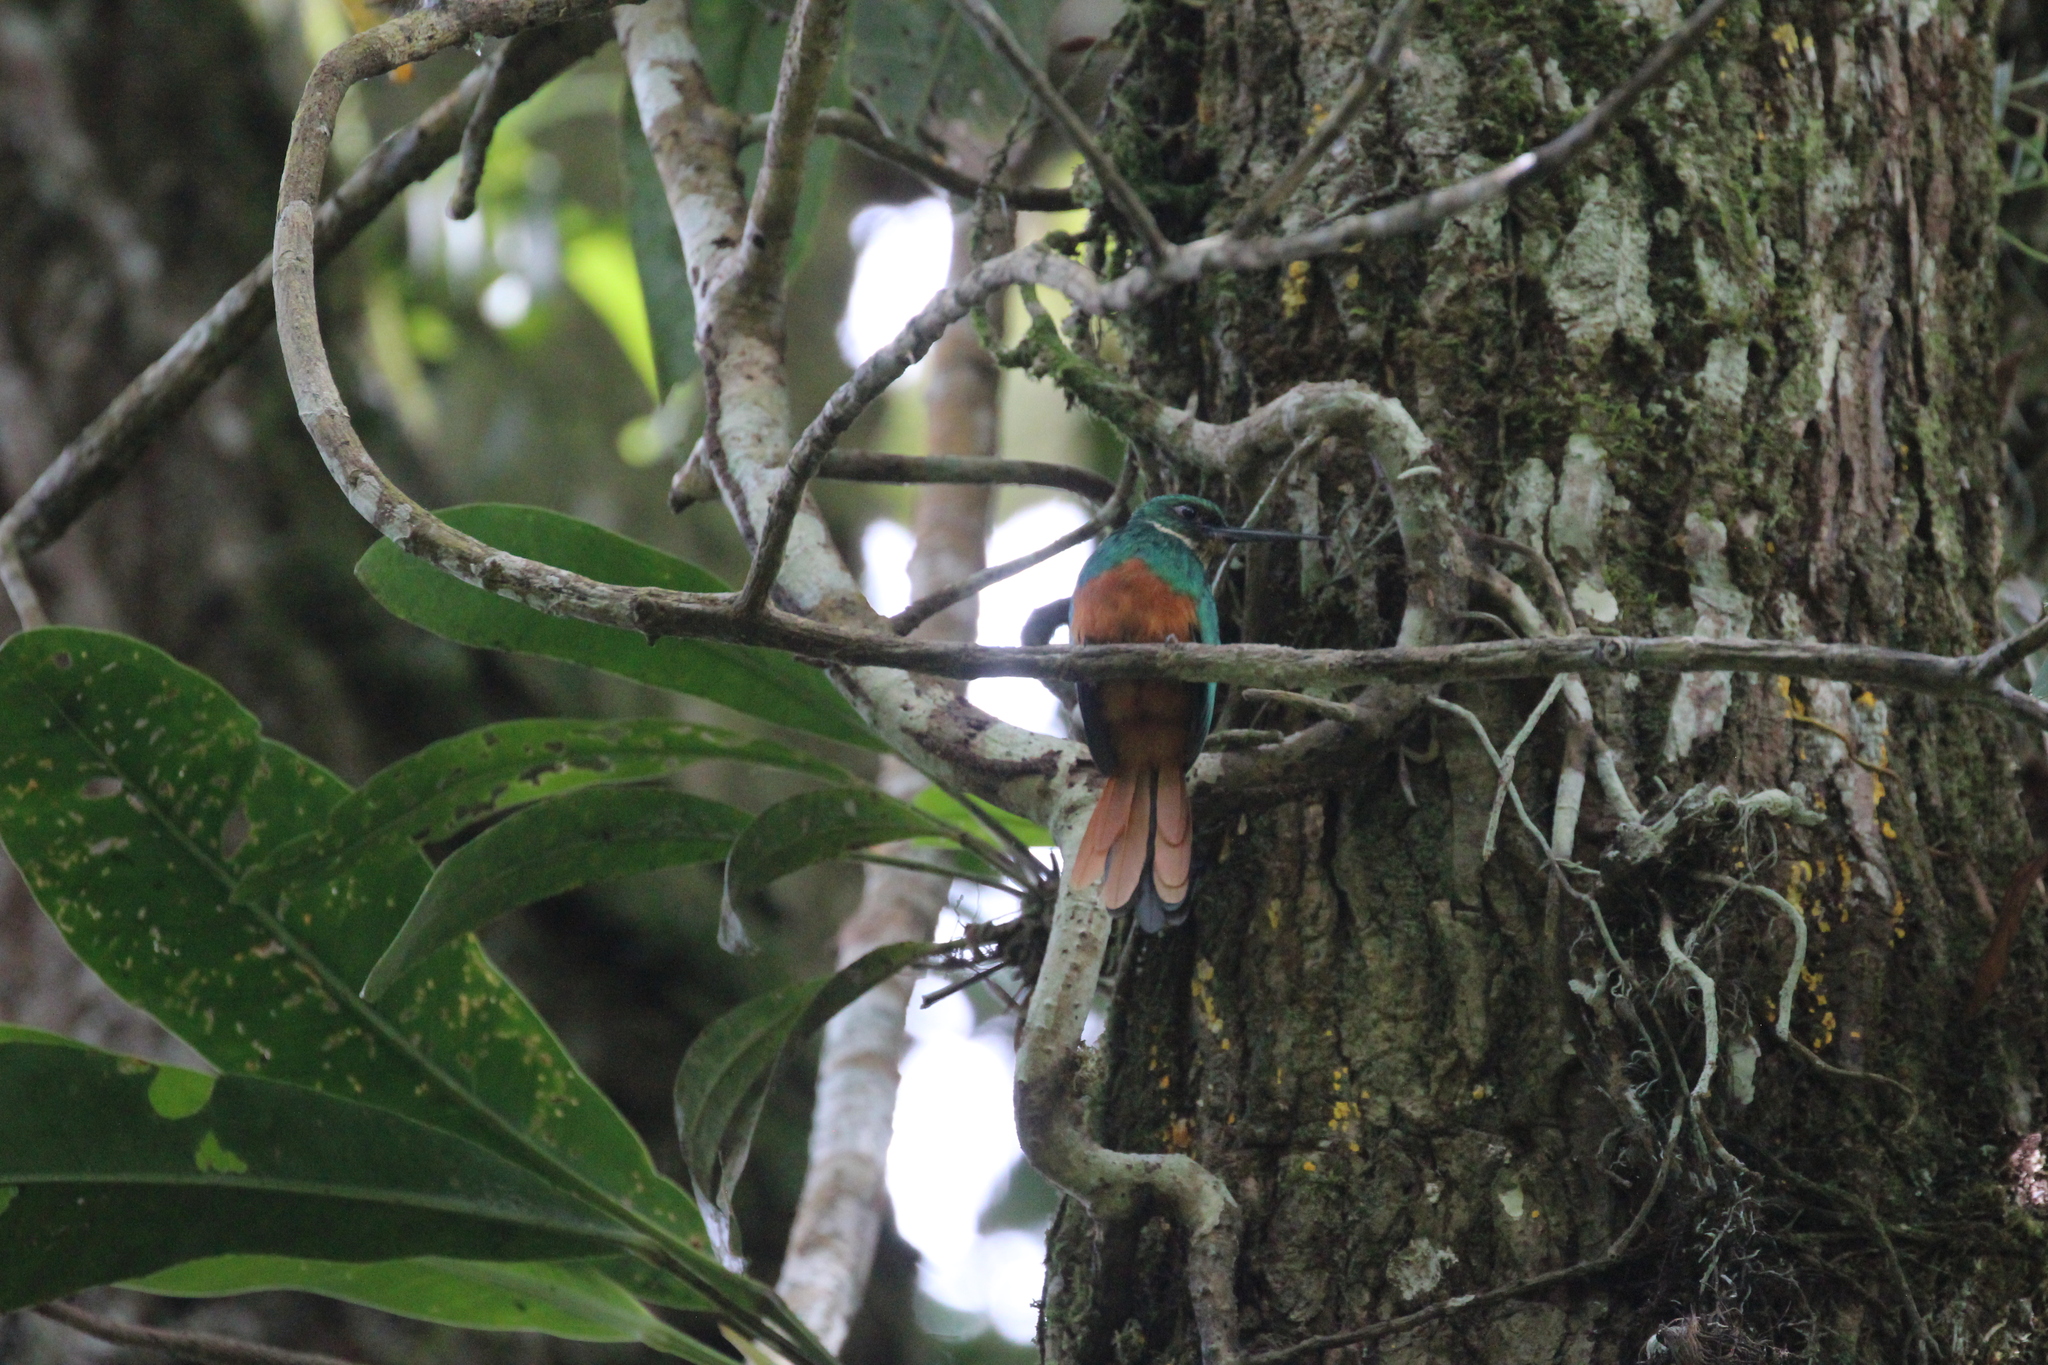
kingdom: Animalia
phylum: Chordata
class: Aves
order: Piciformes
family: Galbulidae
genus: Galbula
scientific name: Galbula ruficauda
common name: Rufous-tailed jacamar
